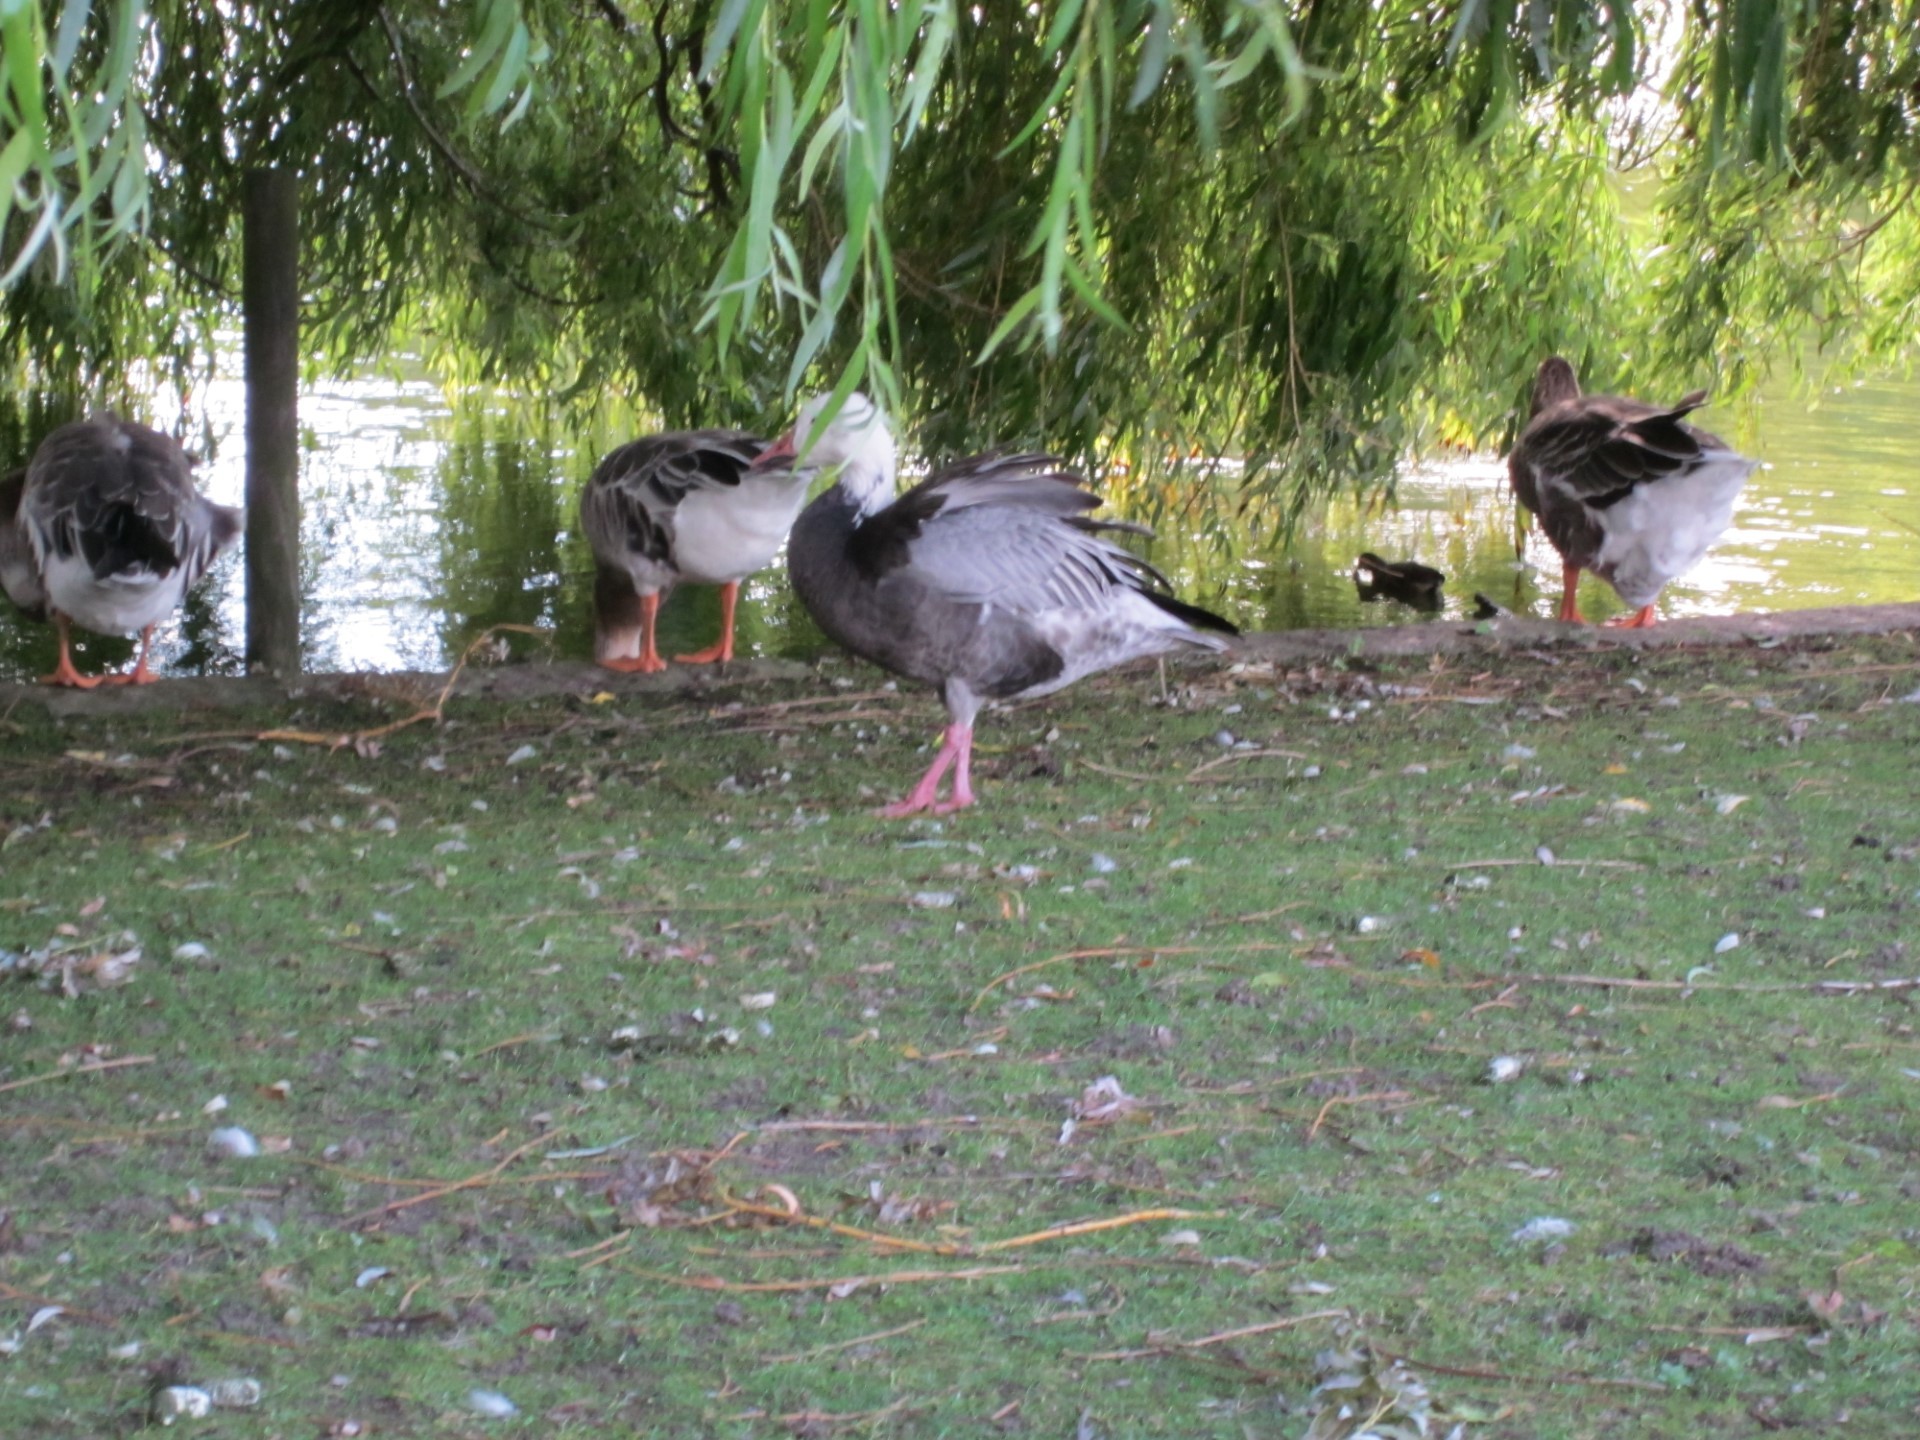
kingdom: Animalia
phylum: Chordata
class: Aves
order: Anseriformes
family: Anatidae
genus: Anser
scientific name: Anser caerulescens
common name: Snow goose
